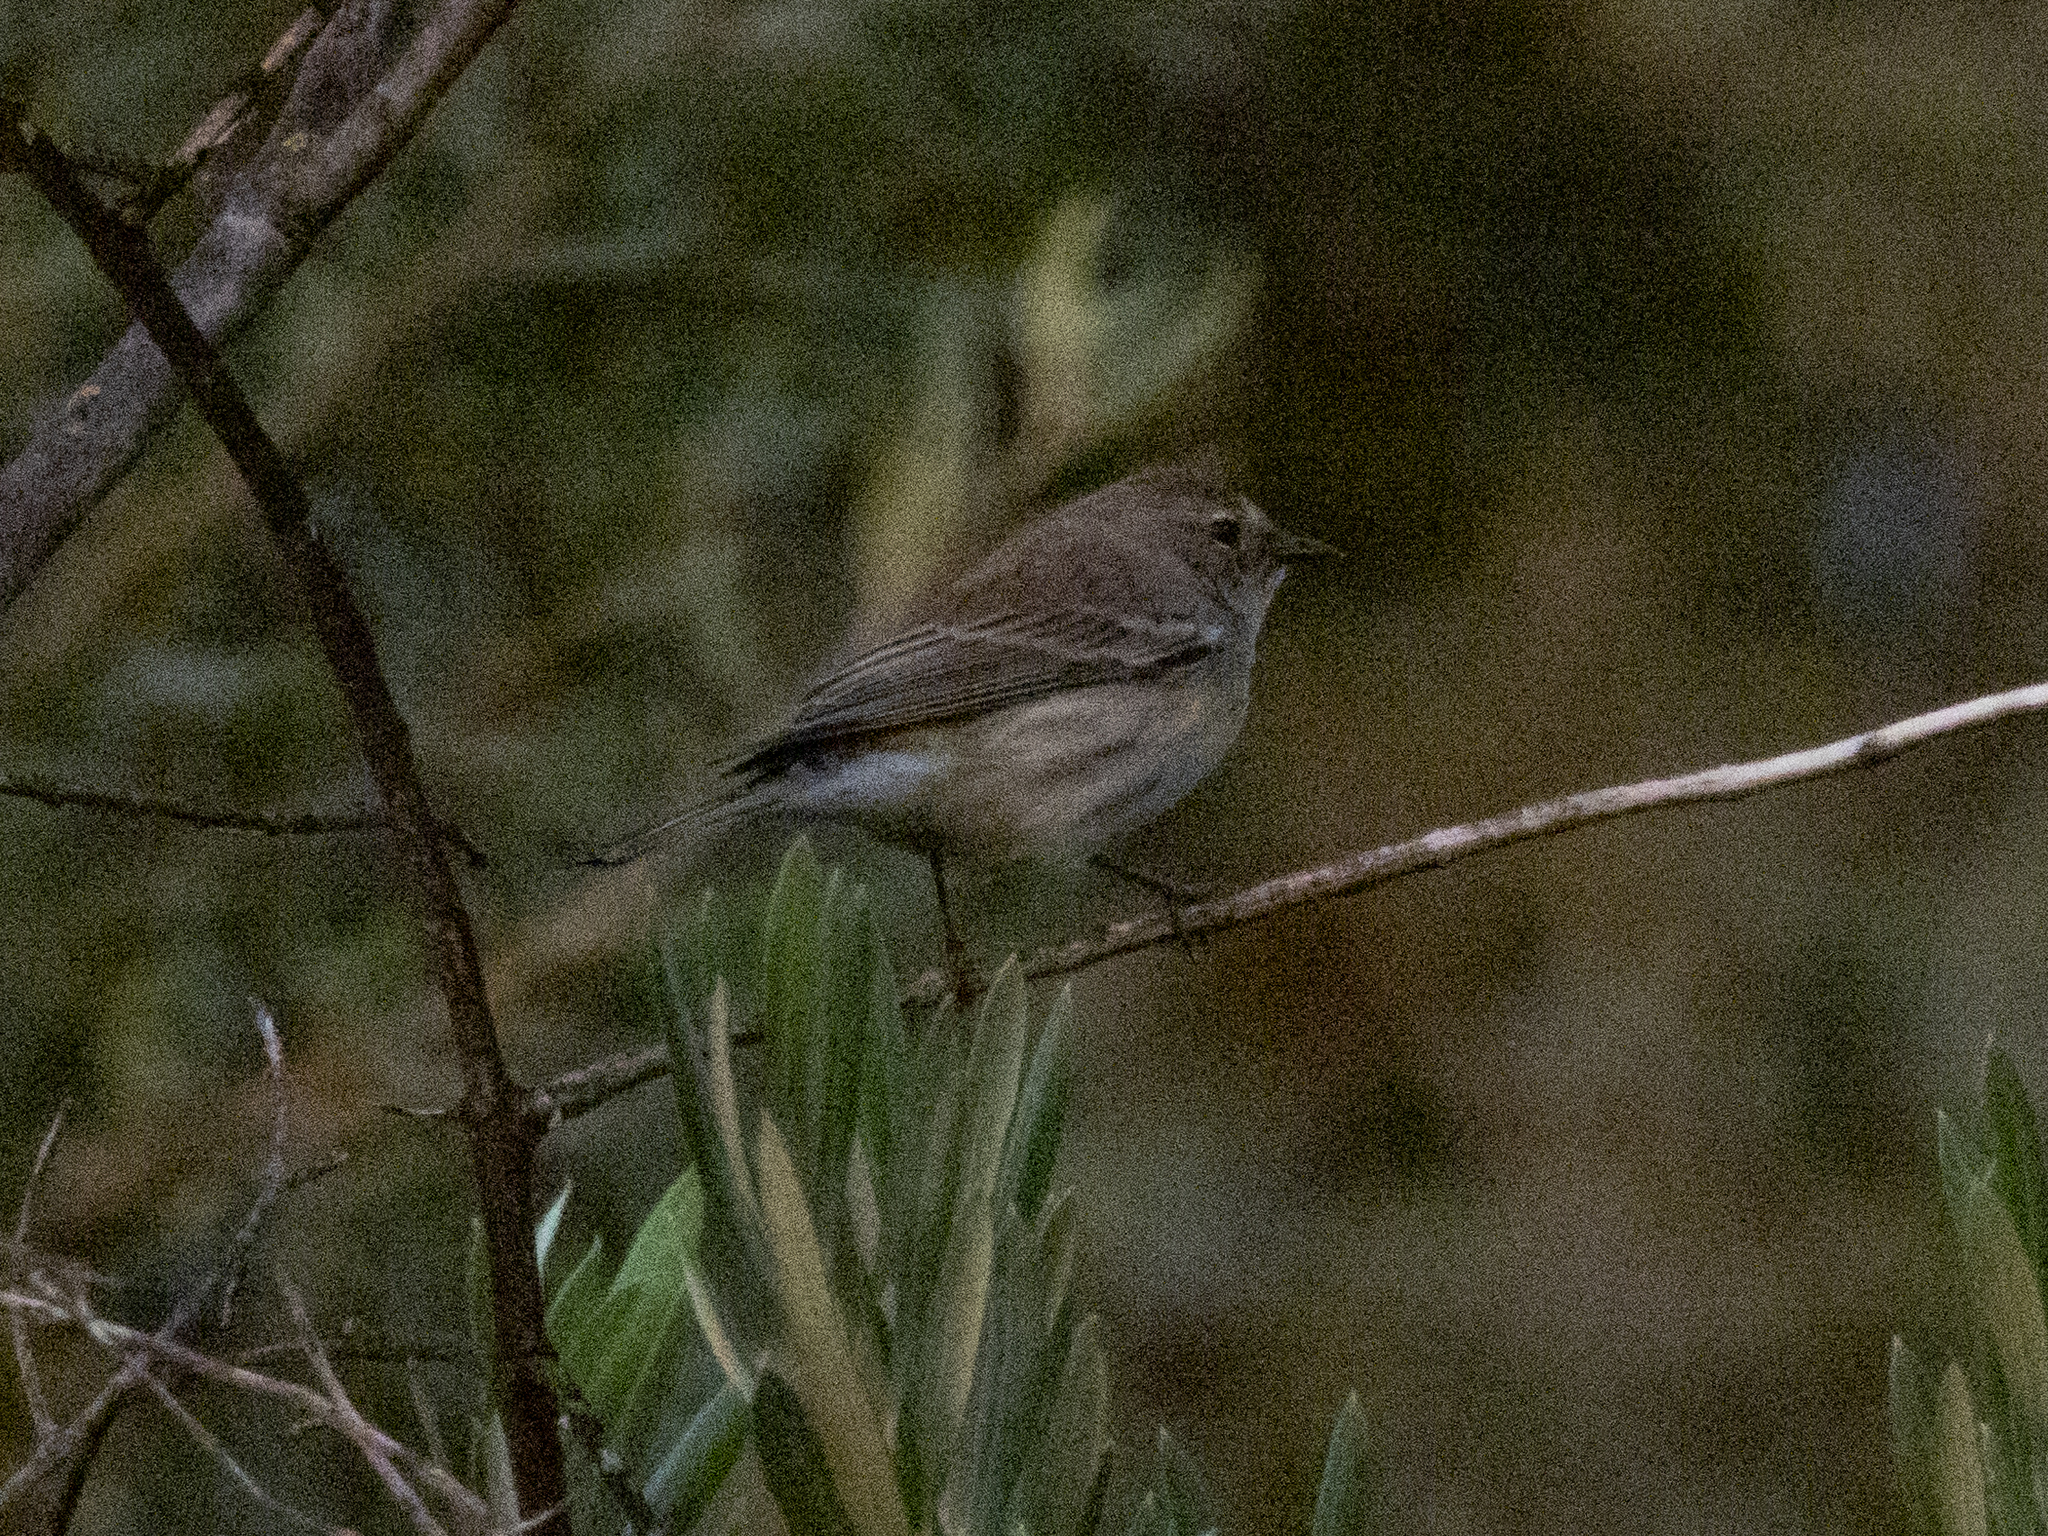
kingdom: Animalia
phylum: Chordata
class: Aves
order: Passeriformes
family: Parulidae
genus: Setophaga
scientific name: Setophaga coronata
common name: Myrtle warbler
